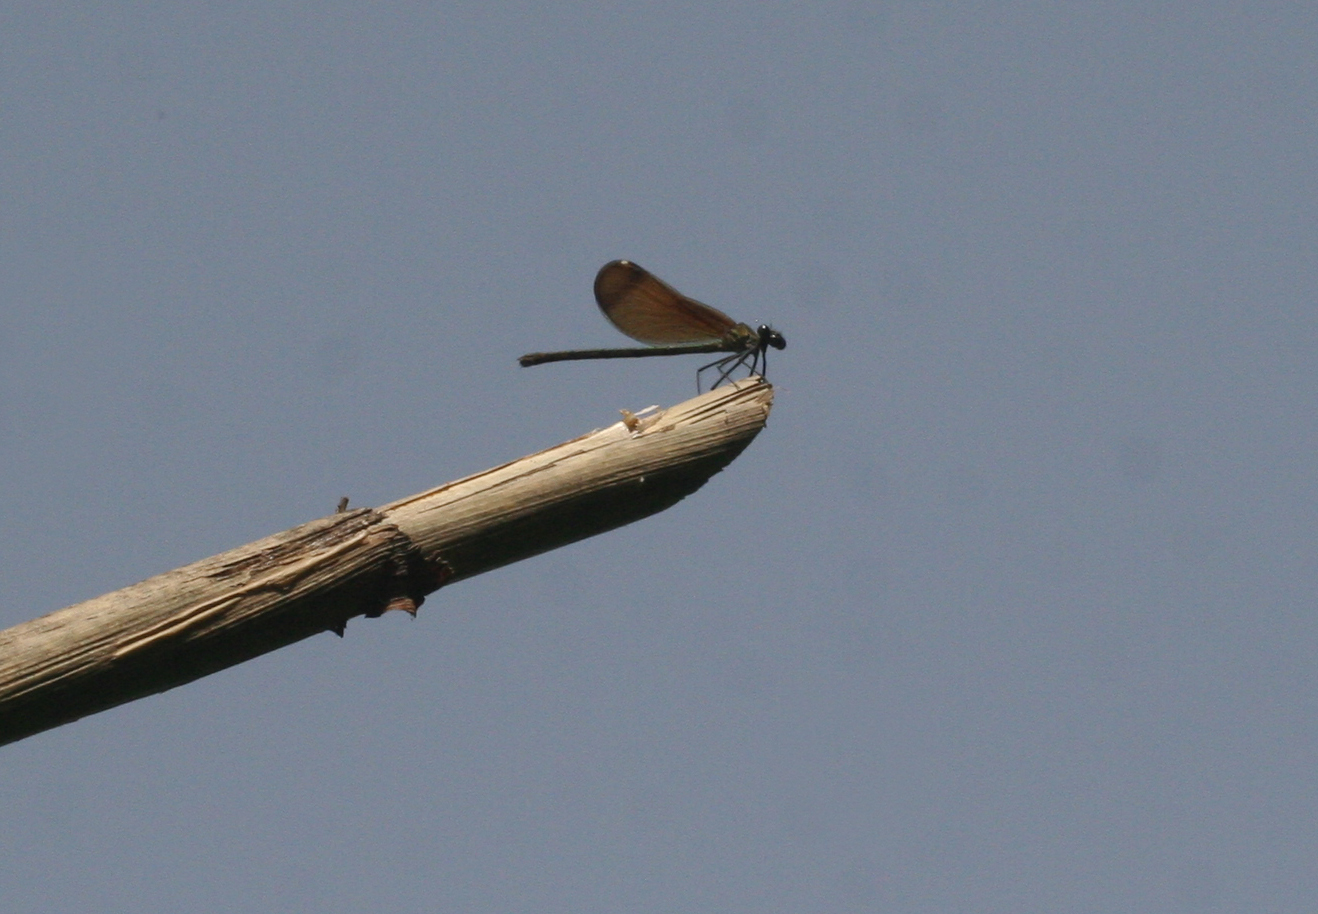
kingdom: Animalia
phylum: Arthropoda
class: Insecta
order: Odonata
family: Calopterygidae
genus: Calopteryx
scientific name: Calopteryx haemorrhoidalis
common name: Copper demoiselle
